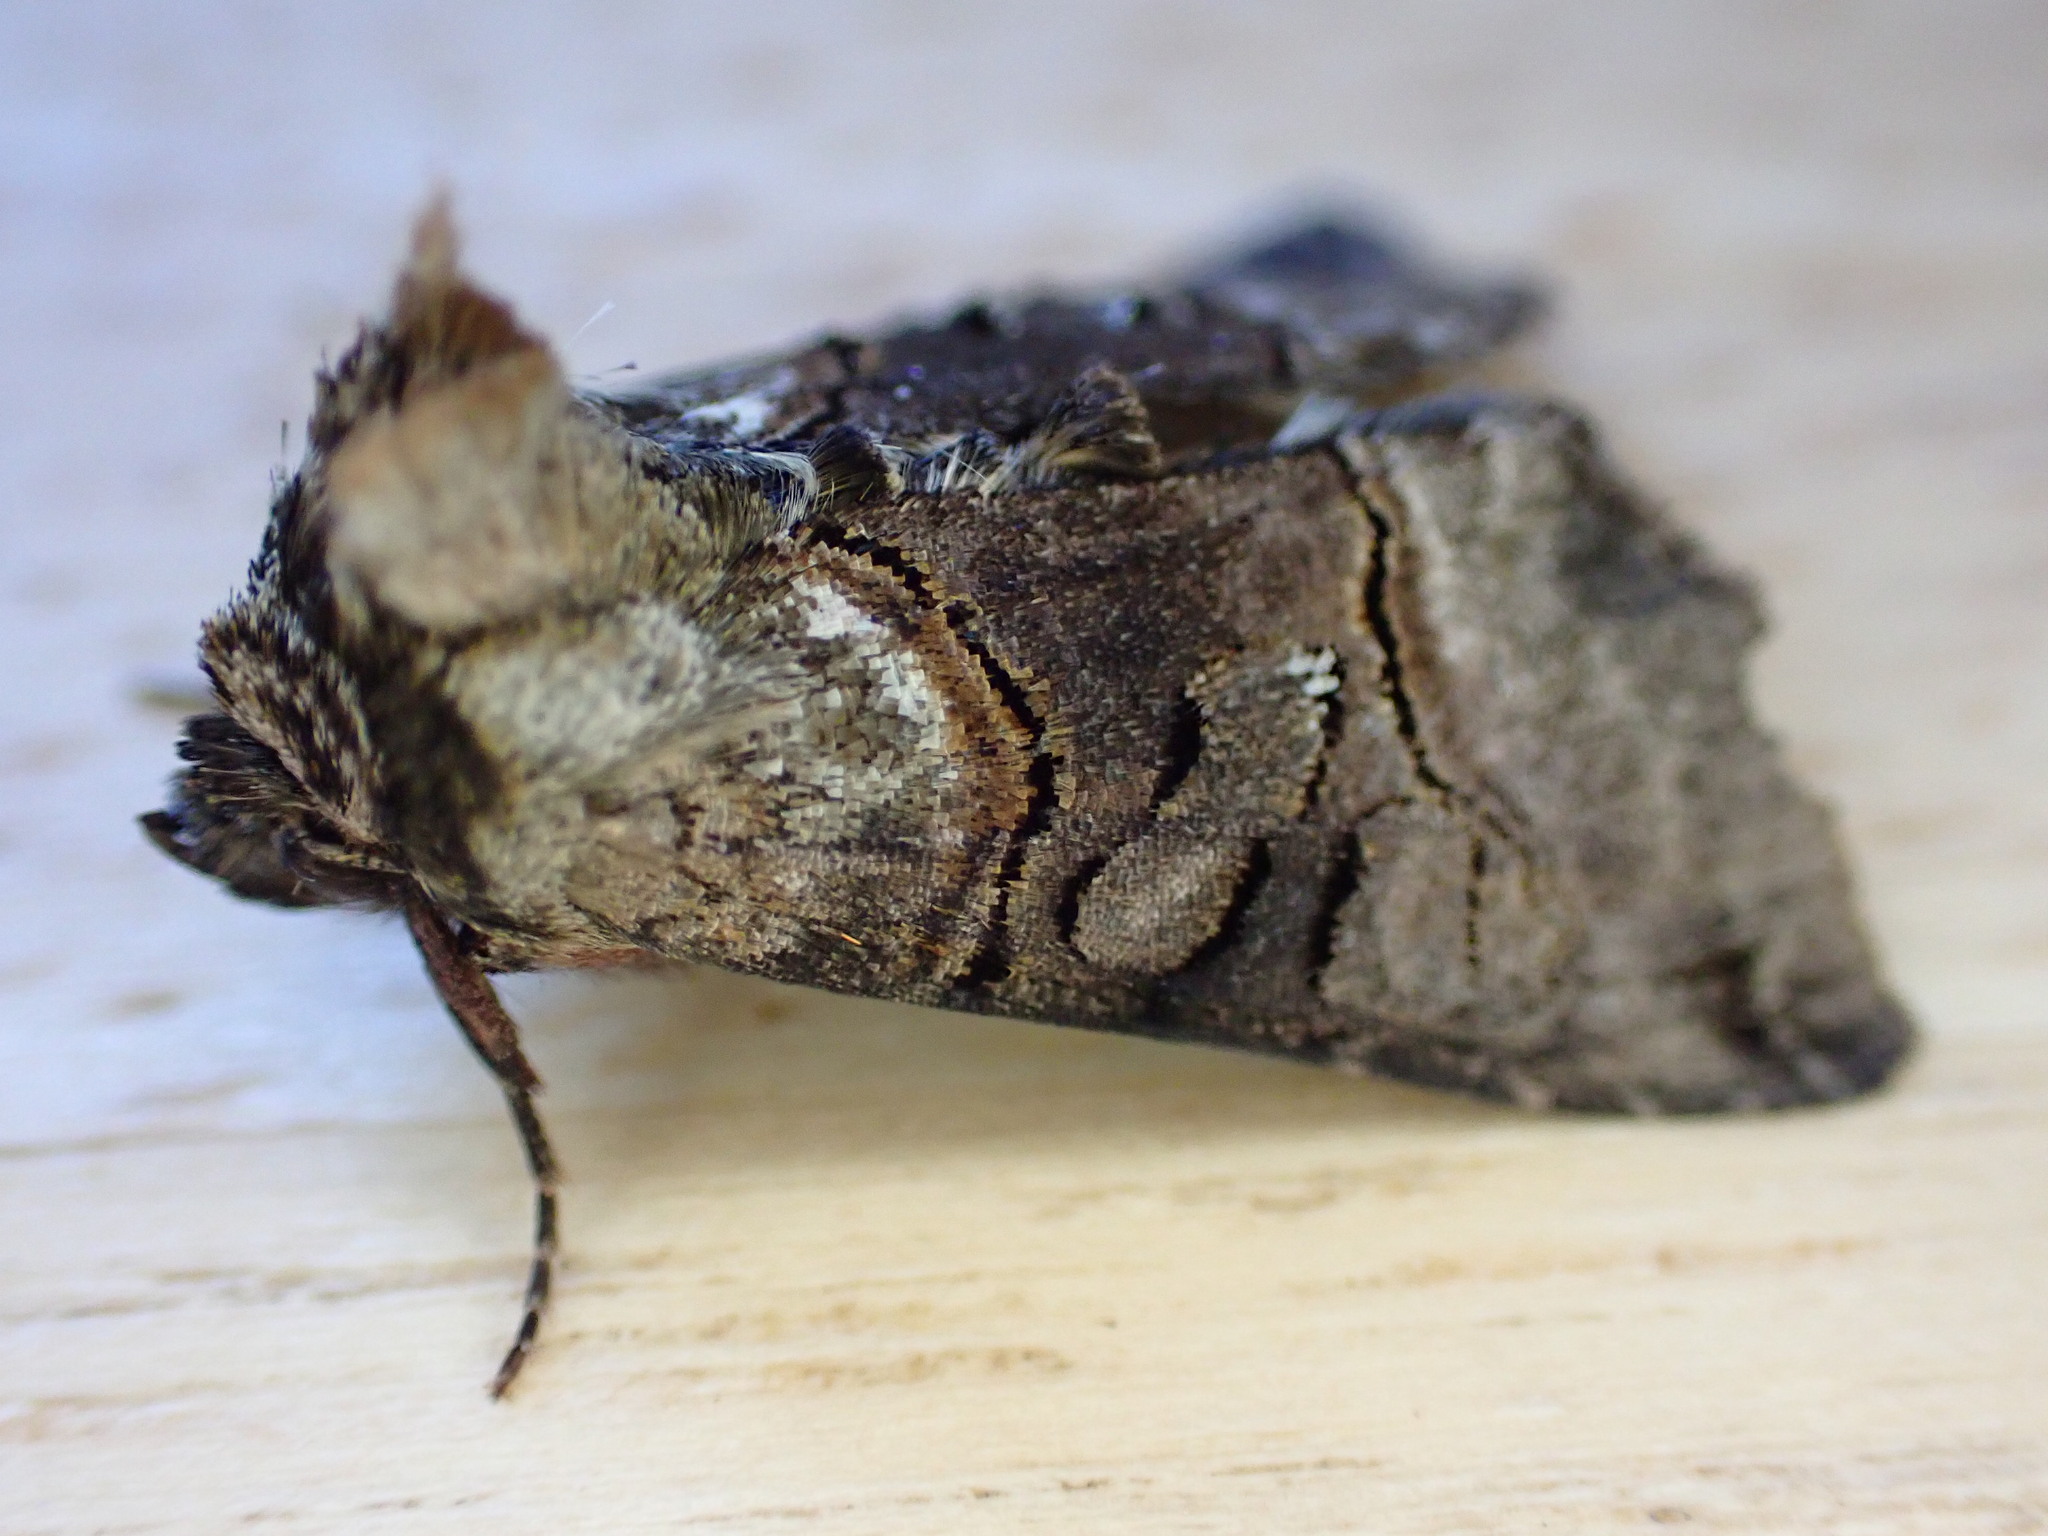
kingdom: Animalia
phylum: Arthropoda
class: Insecta
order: Lepidoptera
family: Noctuidae
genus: Abrostola
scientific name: Abrostola tripartita
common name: Spectacle
